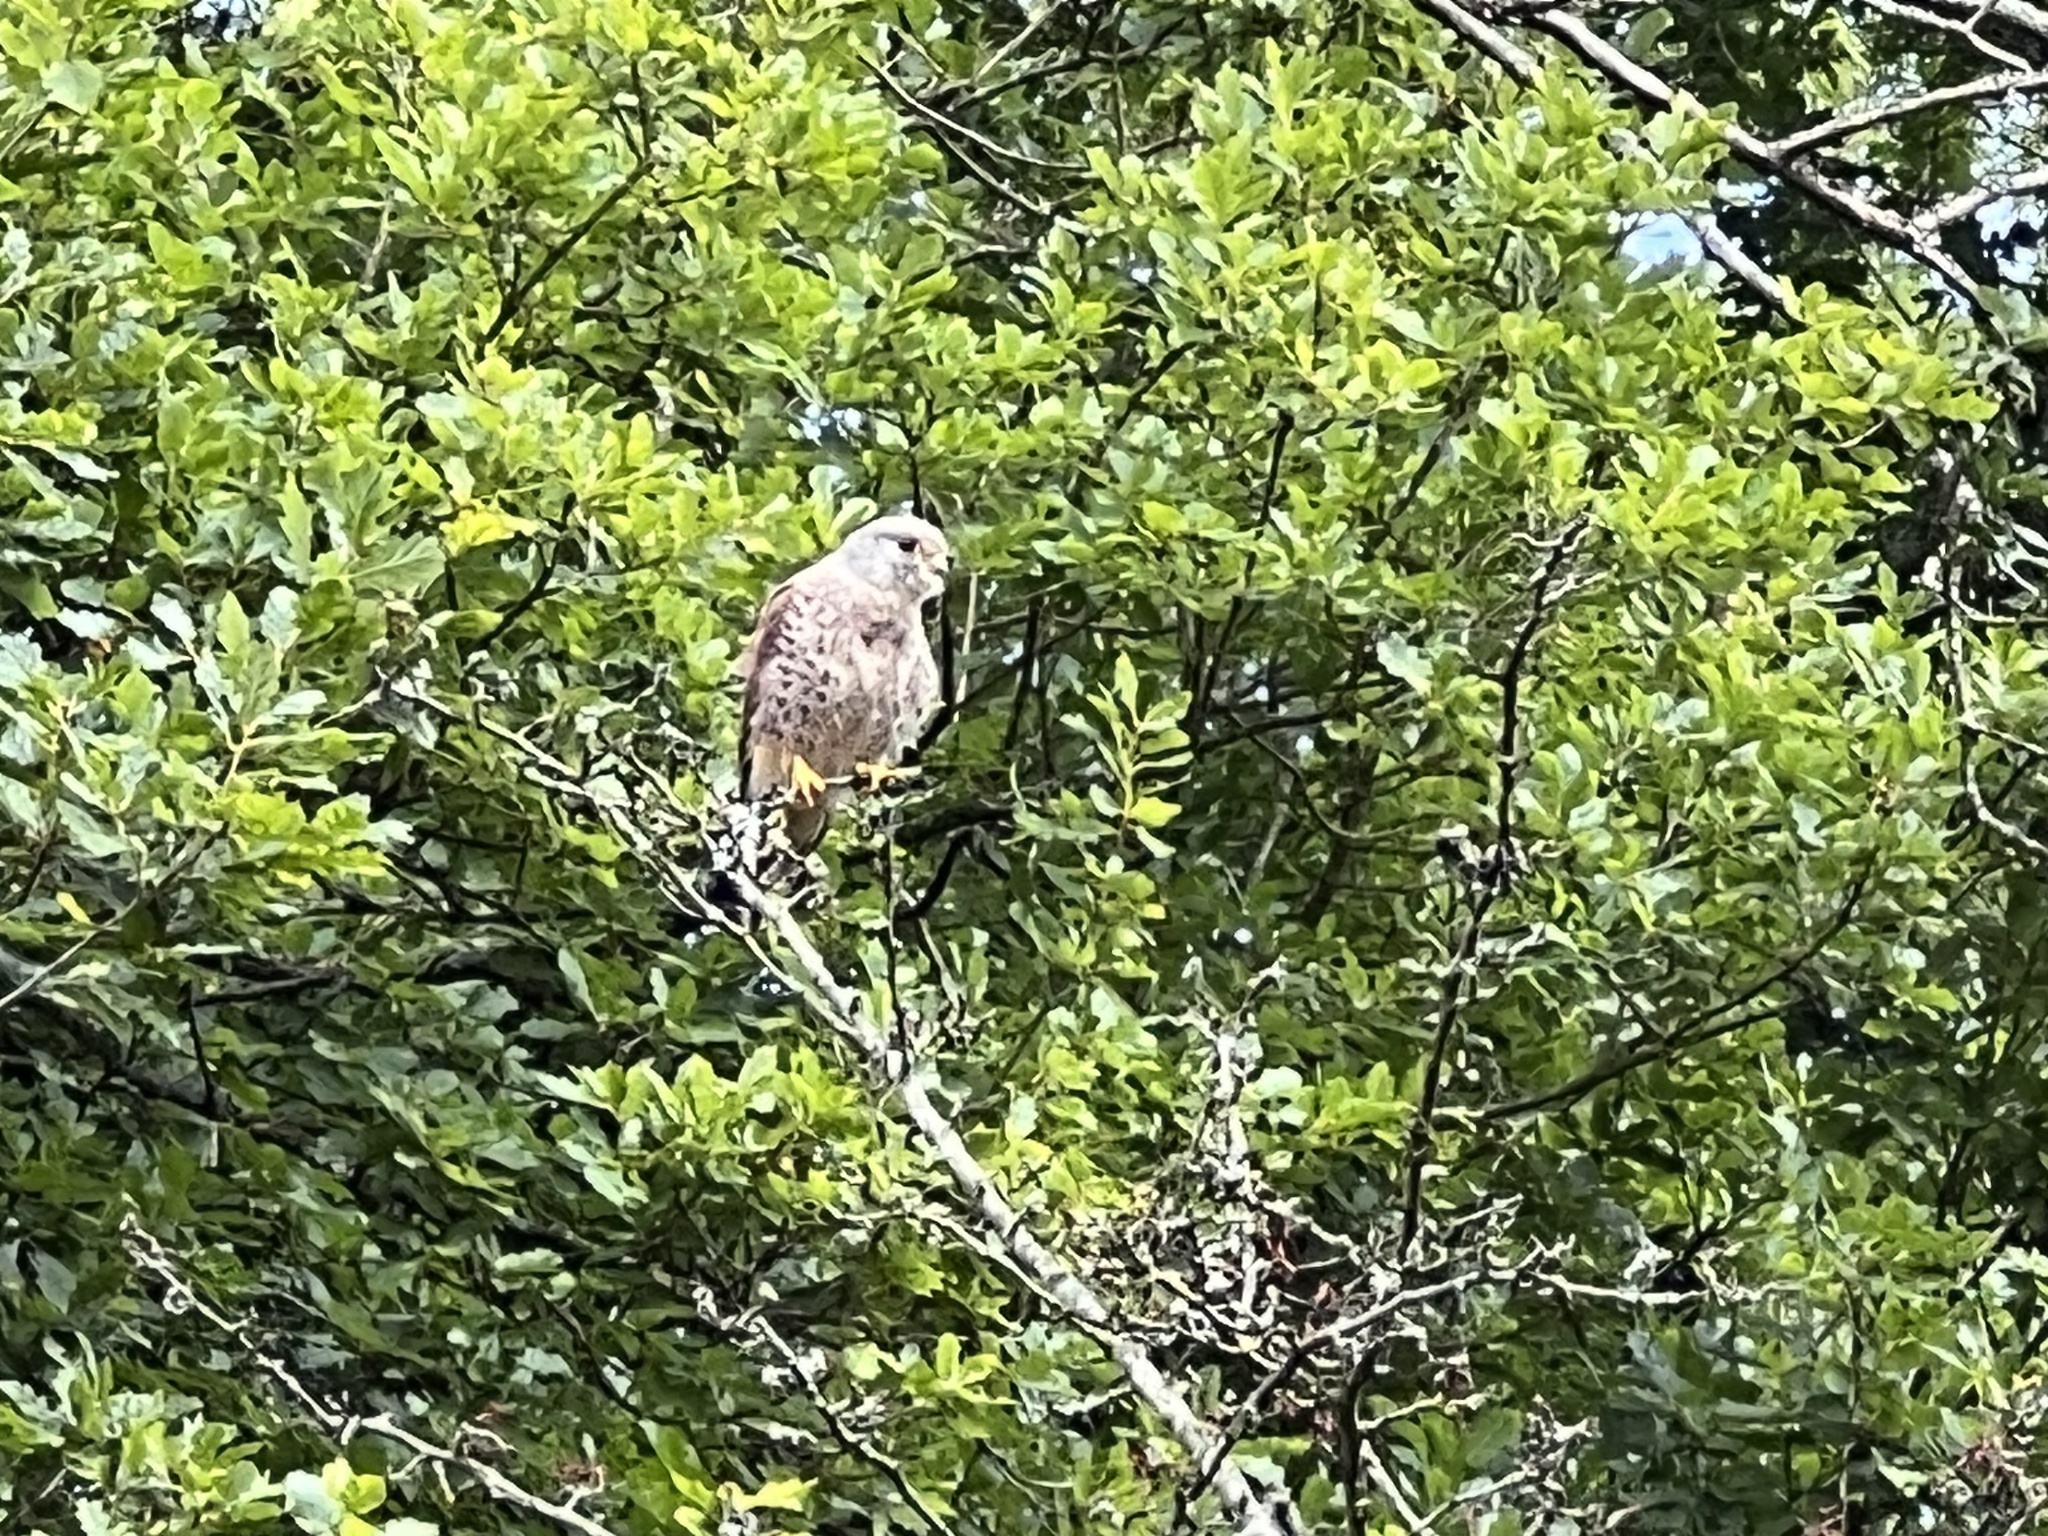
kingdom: Animalia
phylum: Chordata
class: Aves
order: Falconiformes
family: Falconidae
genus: Falco
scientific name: Falco tinnunculus
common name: Common kestrel
